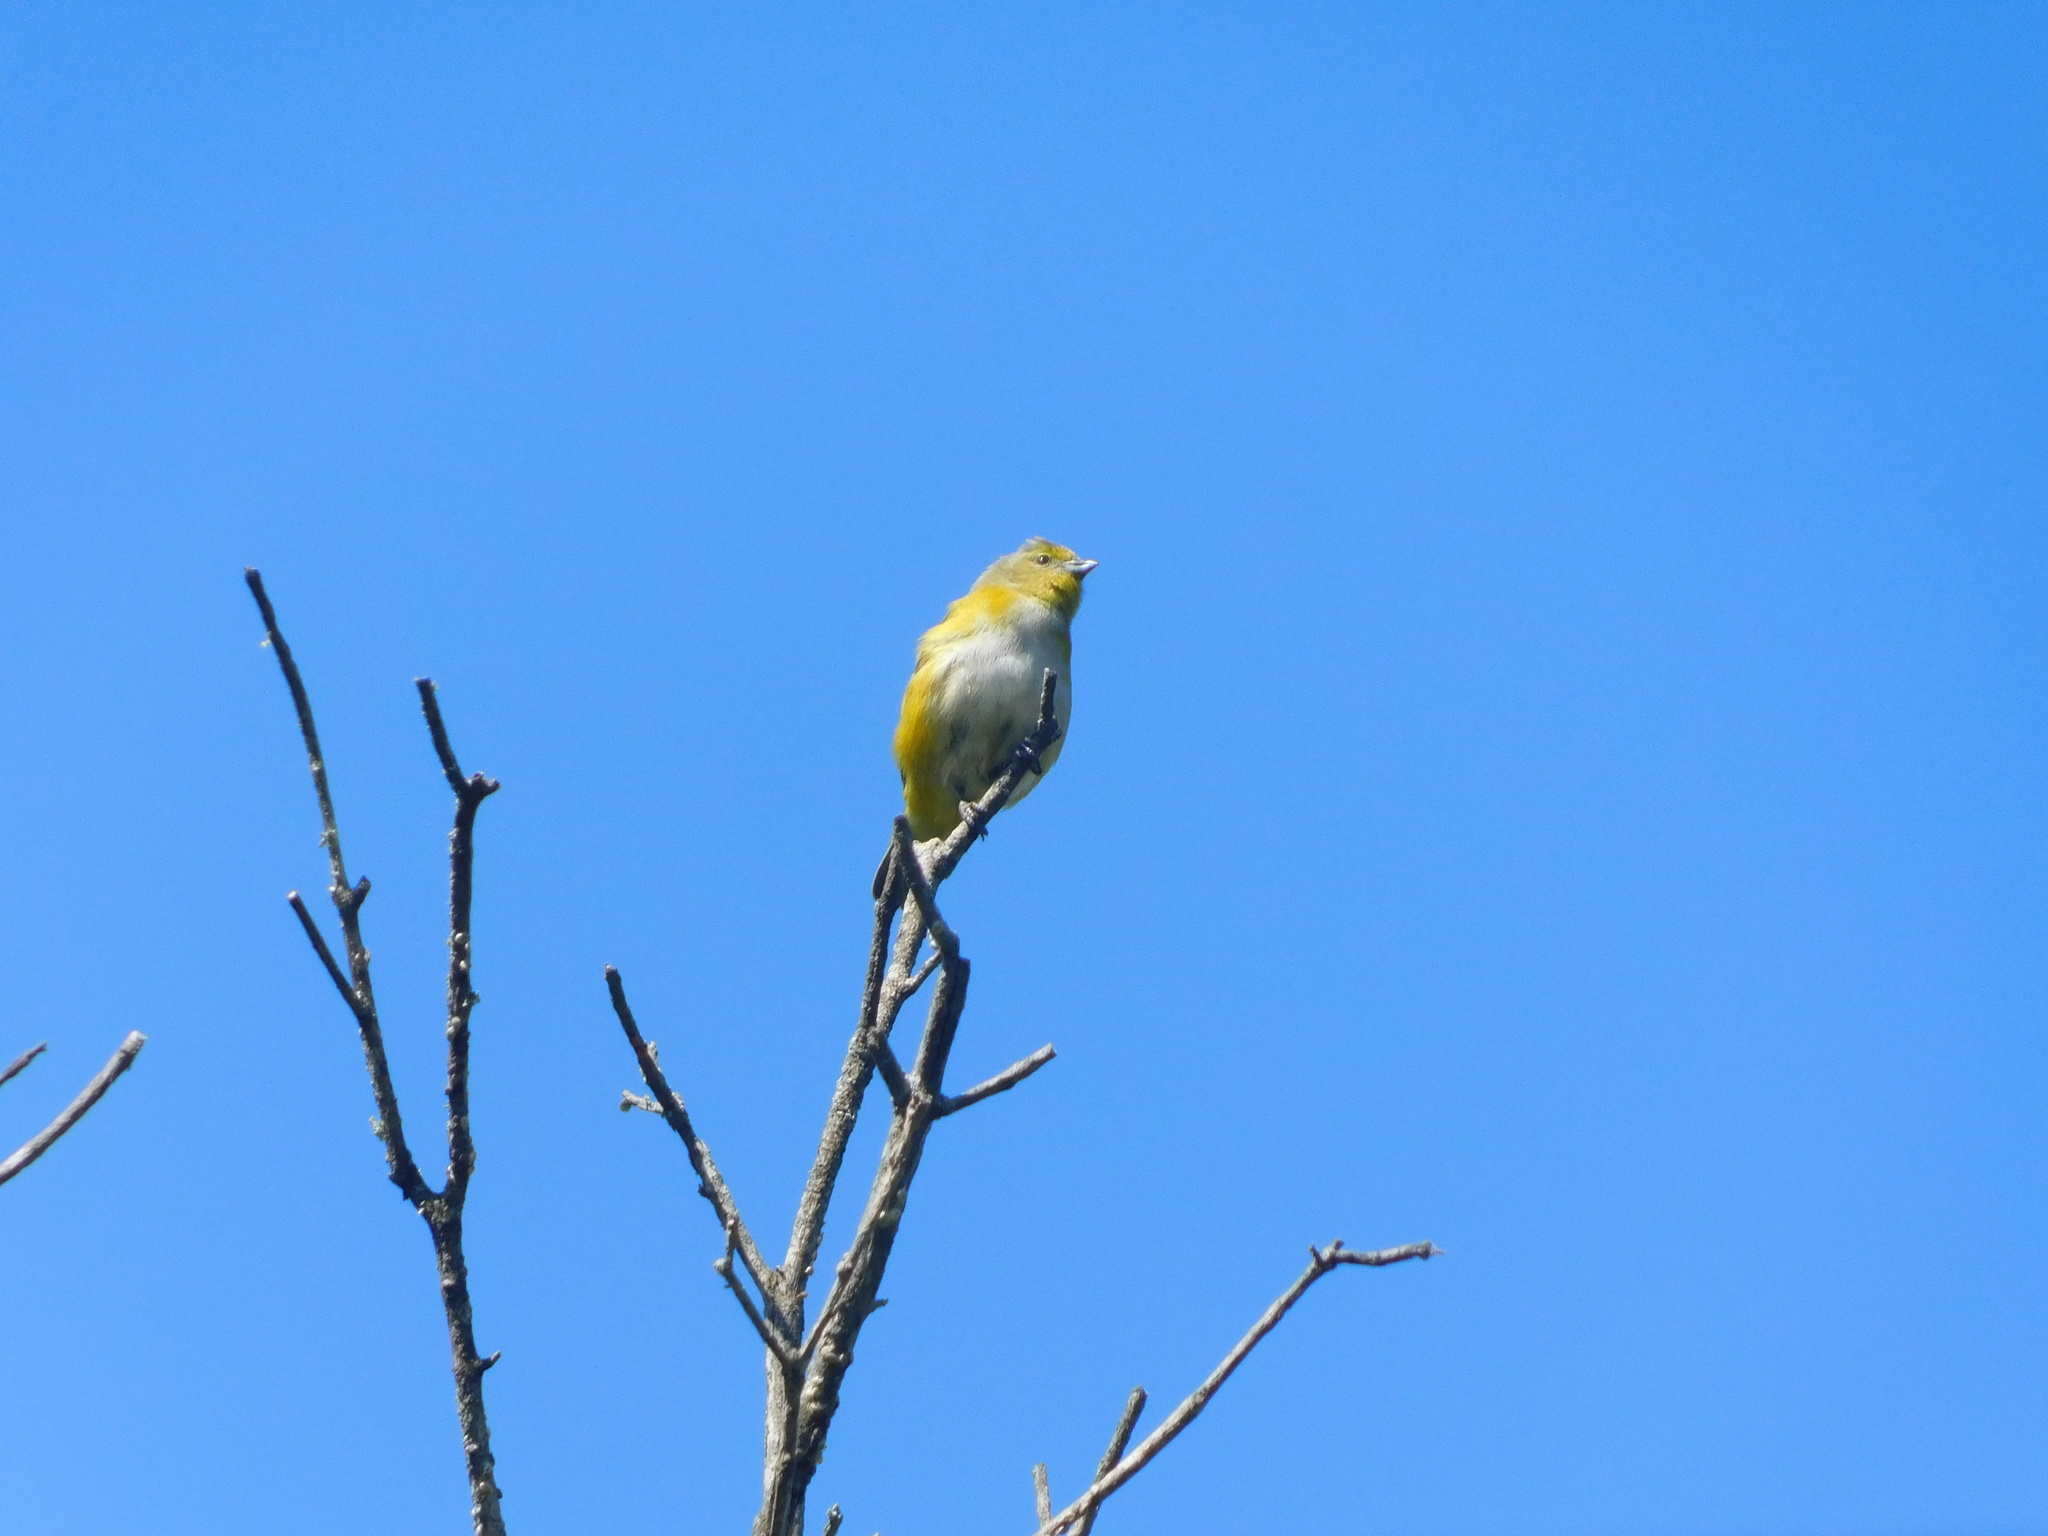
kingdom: Animalia
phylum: Chordata
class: Aves
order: Passeriformes
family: Fringillidae
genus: Euphonia
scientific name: Euphonia chlorotica
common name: Purple-throated euphonia
